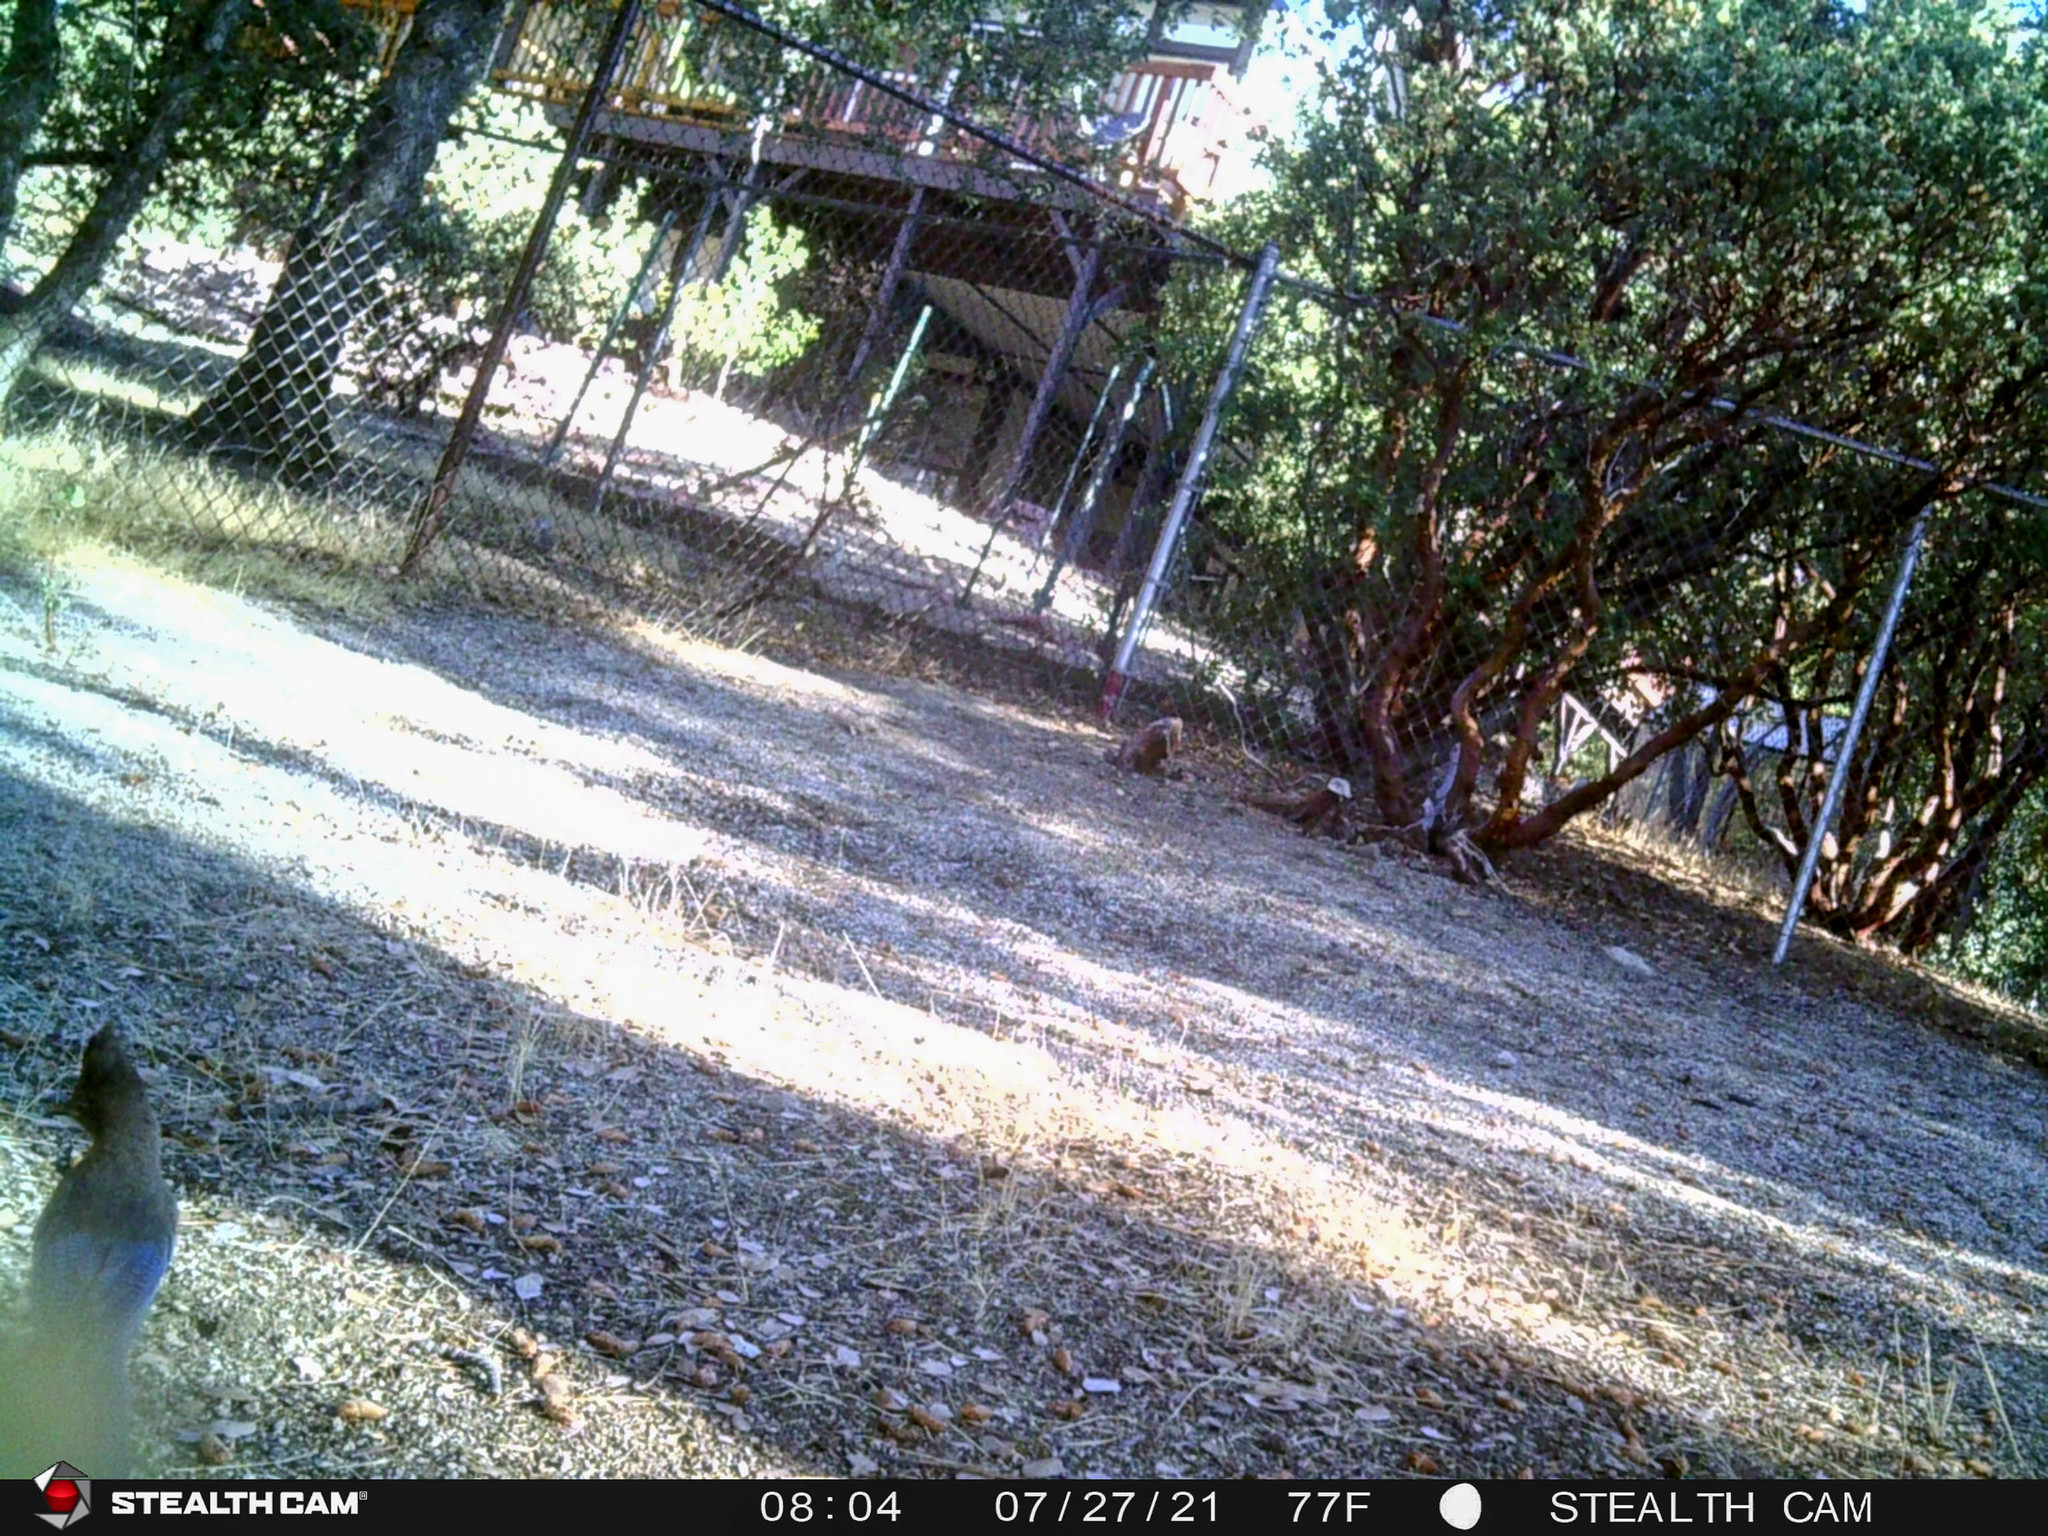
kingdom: Animalia
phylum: Chordata
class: Aves
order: Passeriformes
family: Corvidae
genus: Cyanocitta
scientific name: Cyanocitta stelleri
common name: Steller's jay
